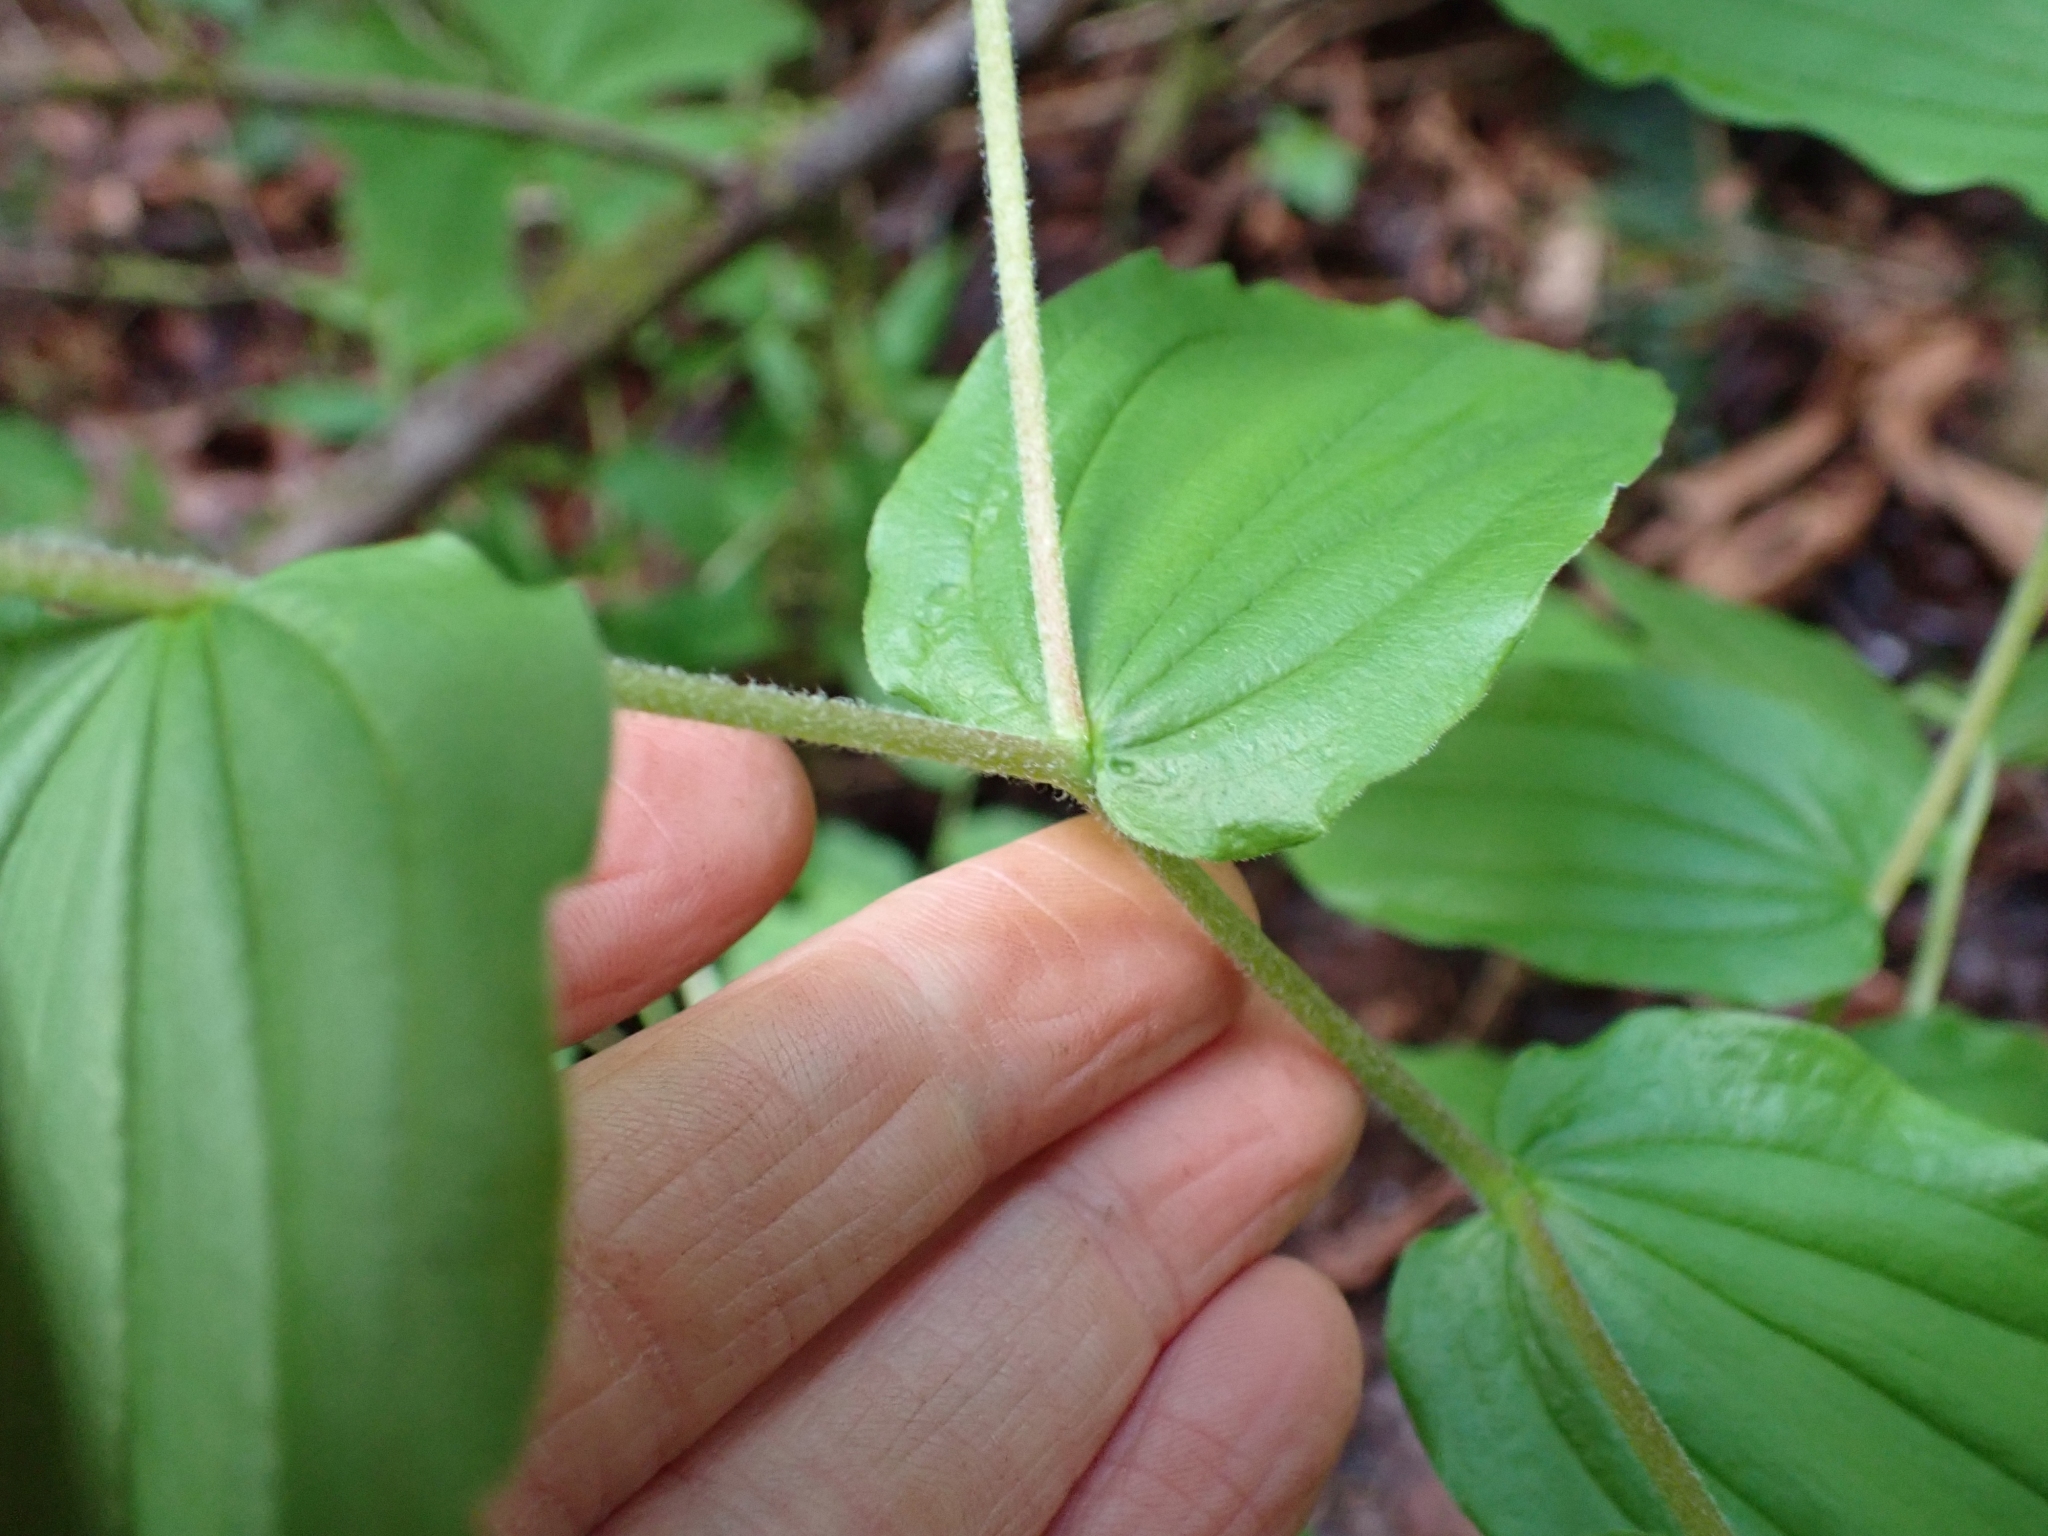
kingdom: Plantae
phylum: Tracheophyta
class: Liliopsida
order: Liliales
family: Liliaceae
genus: Prosartes
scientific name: Prosartes hookeri
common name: Fairy-bells
